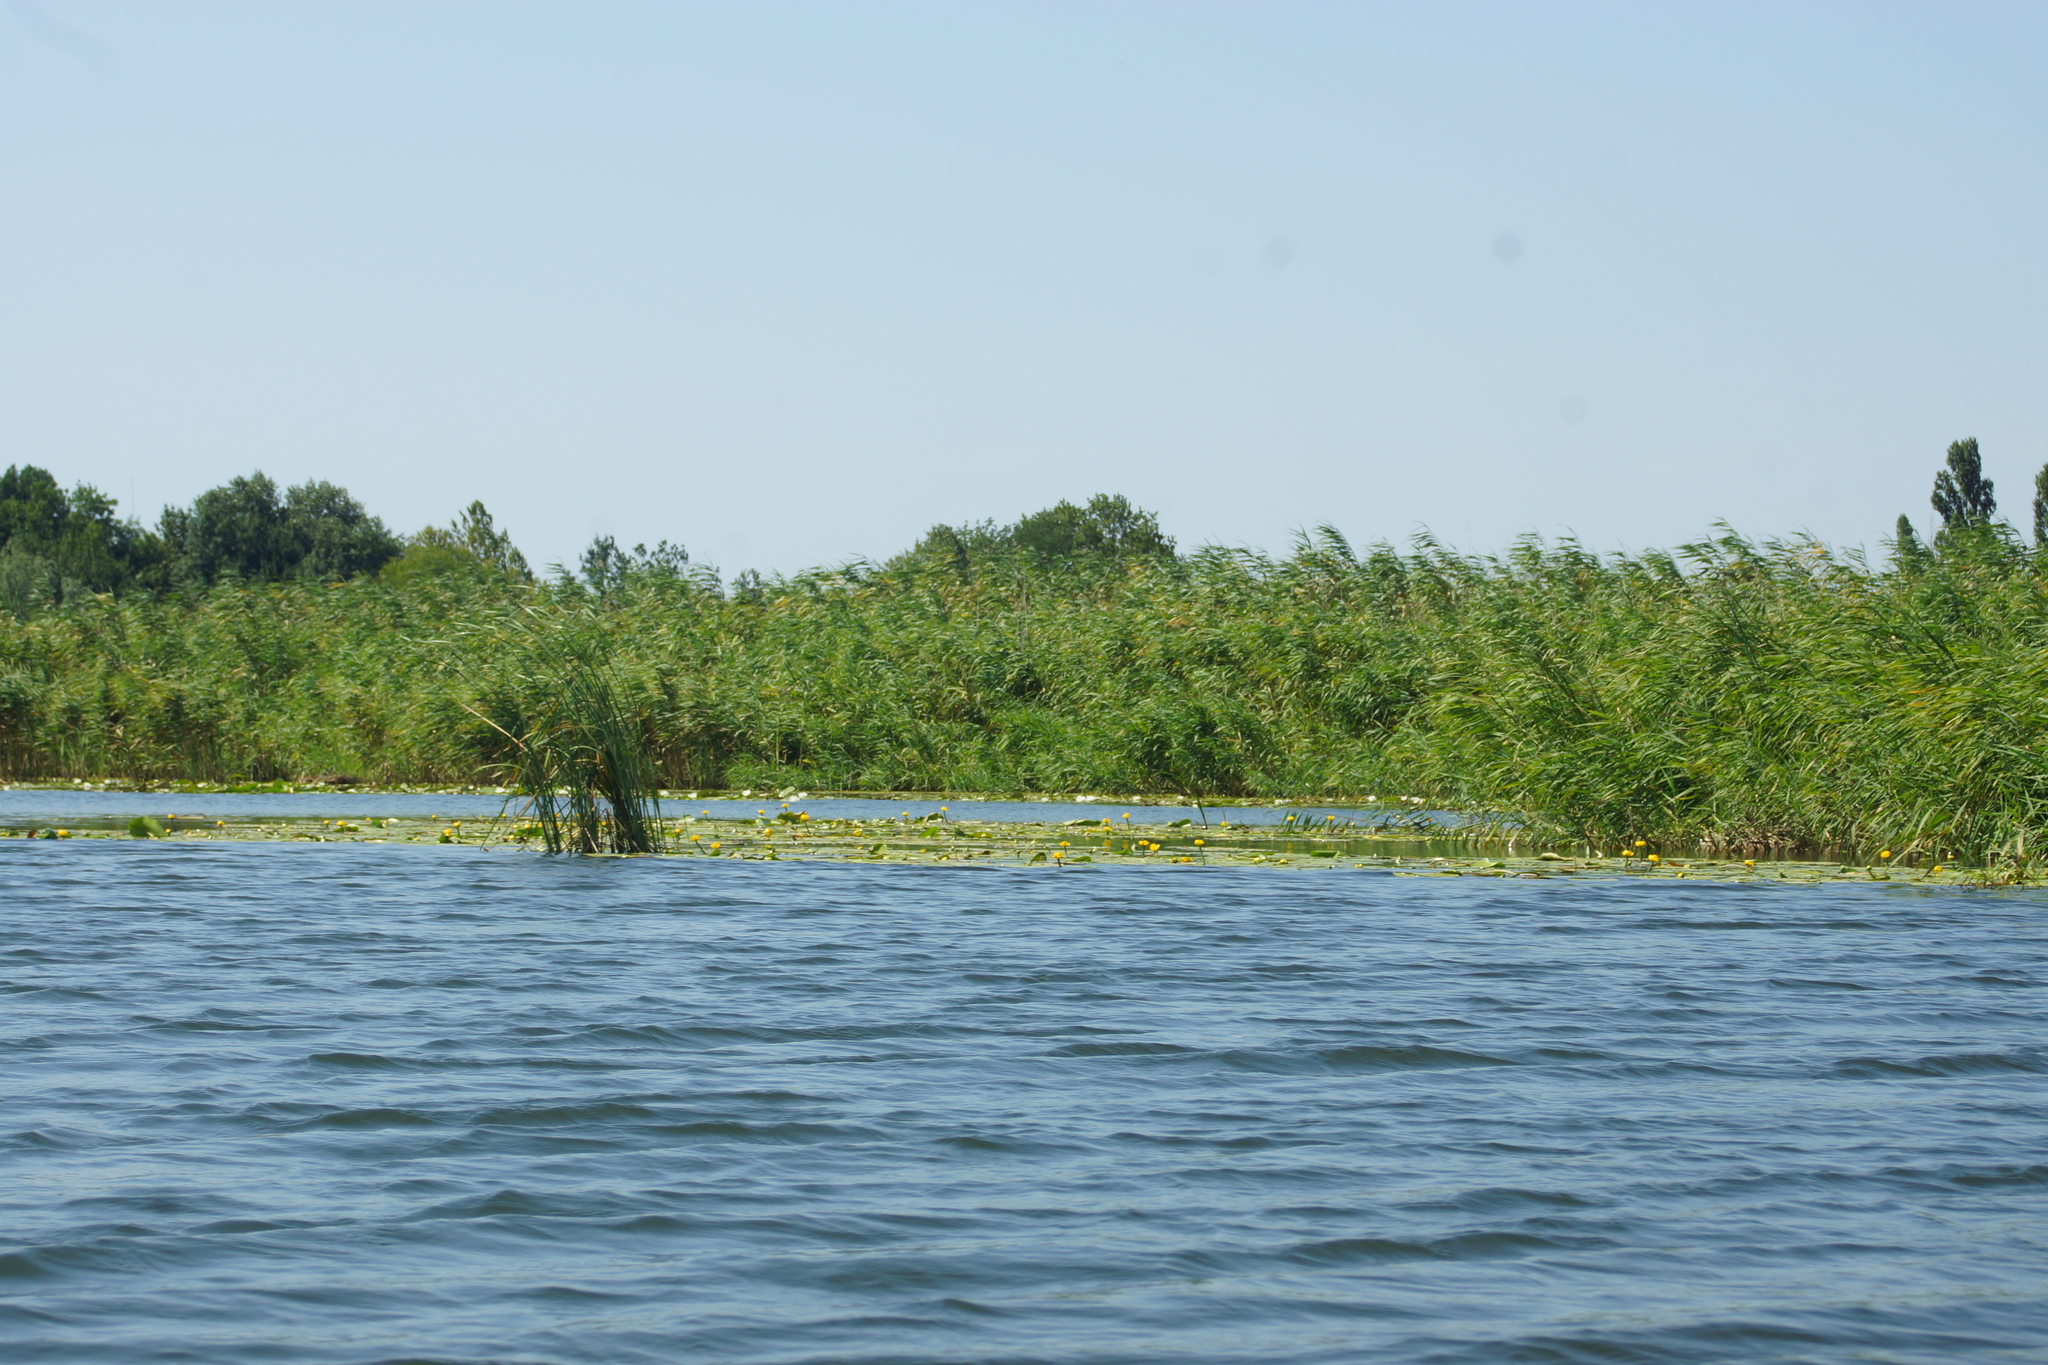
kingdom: Plantae
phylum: Tracheophyta
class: Liliopsida
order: Poales
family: Poaceae
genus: Phragmites
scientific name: Phragmites australis
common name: Common reed
